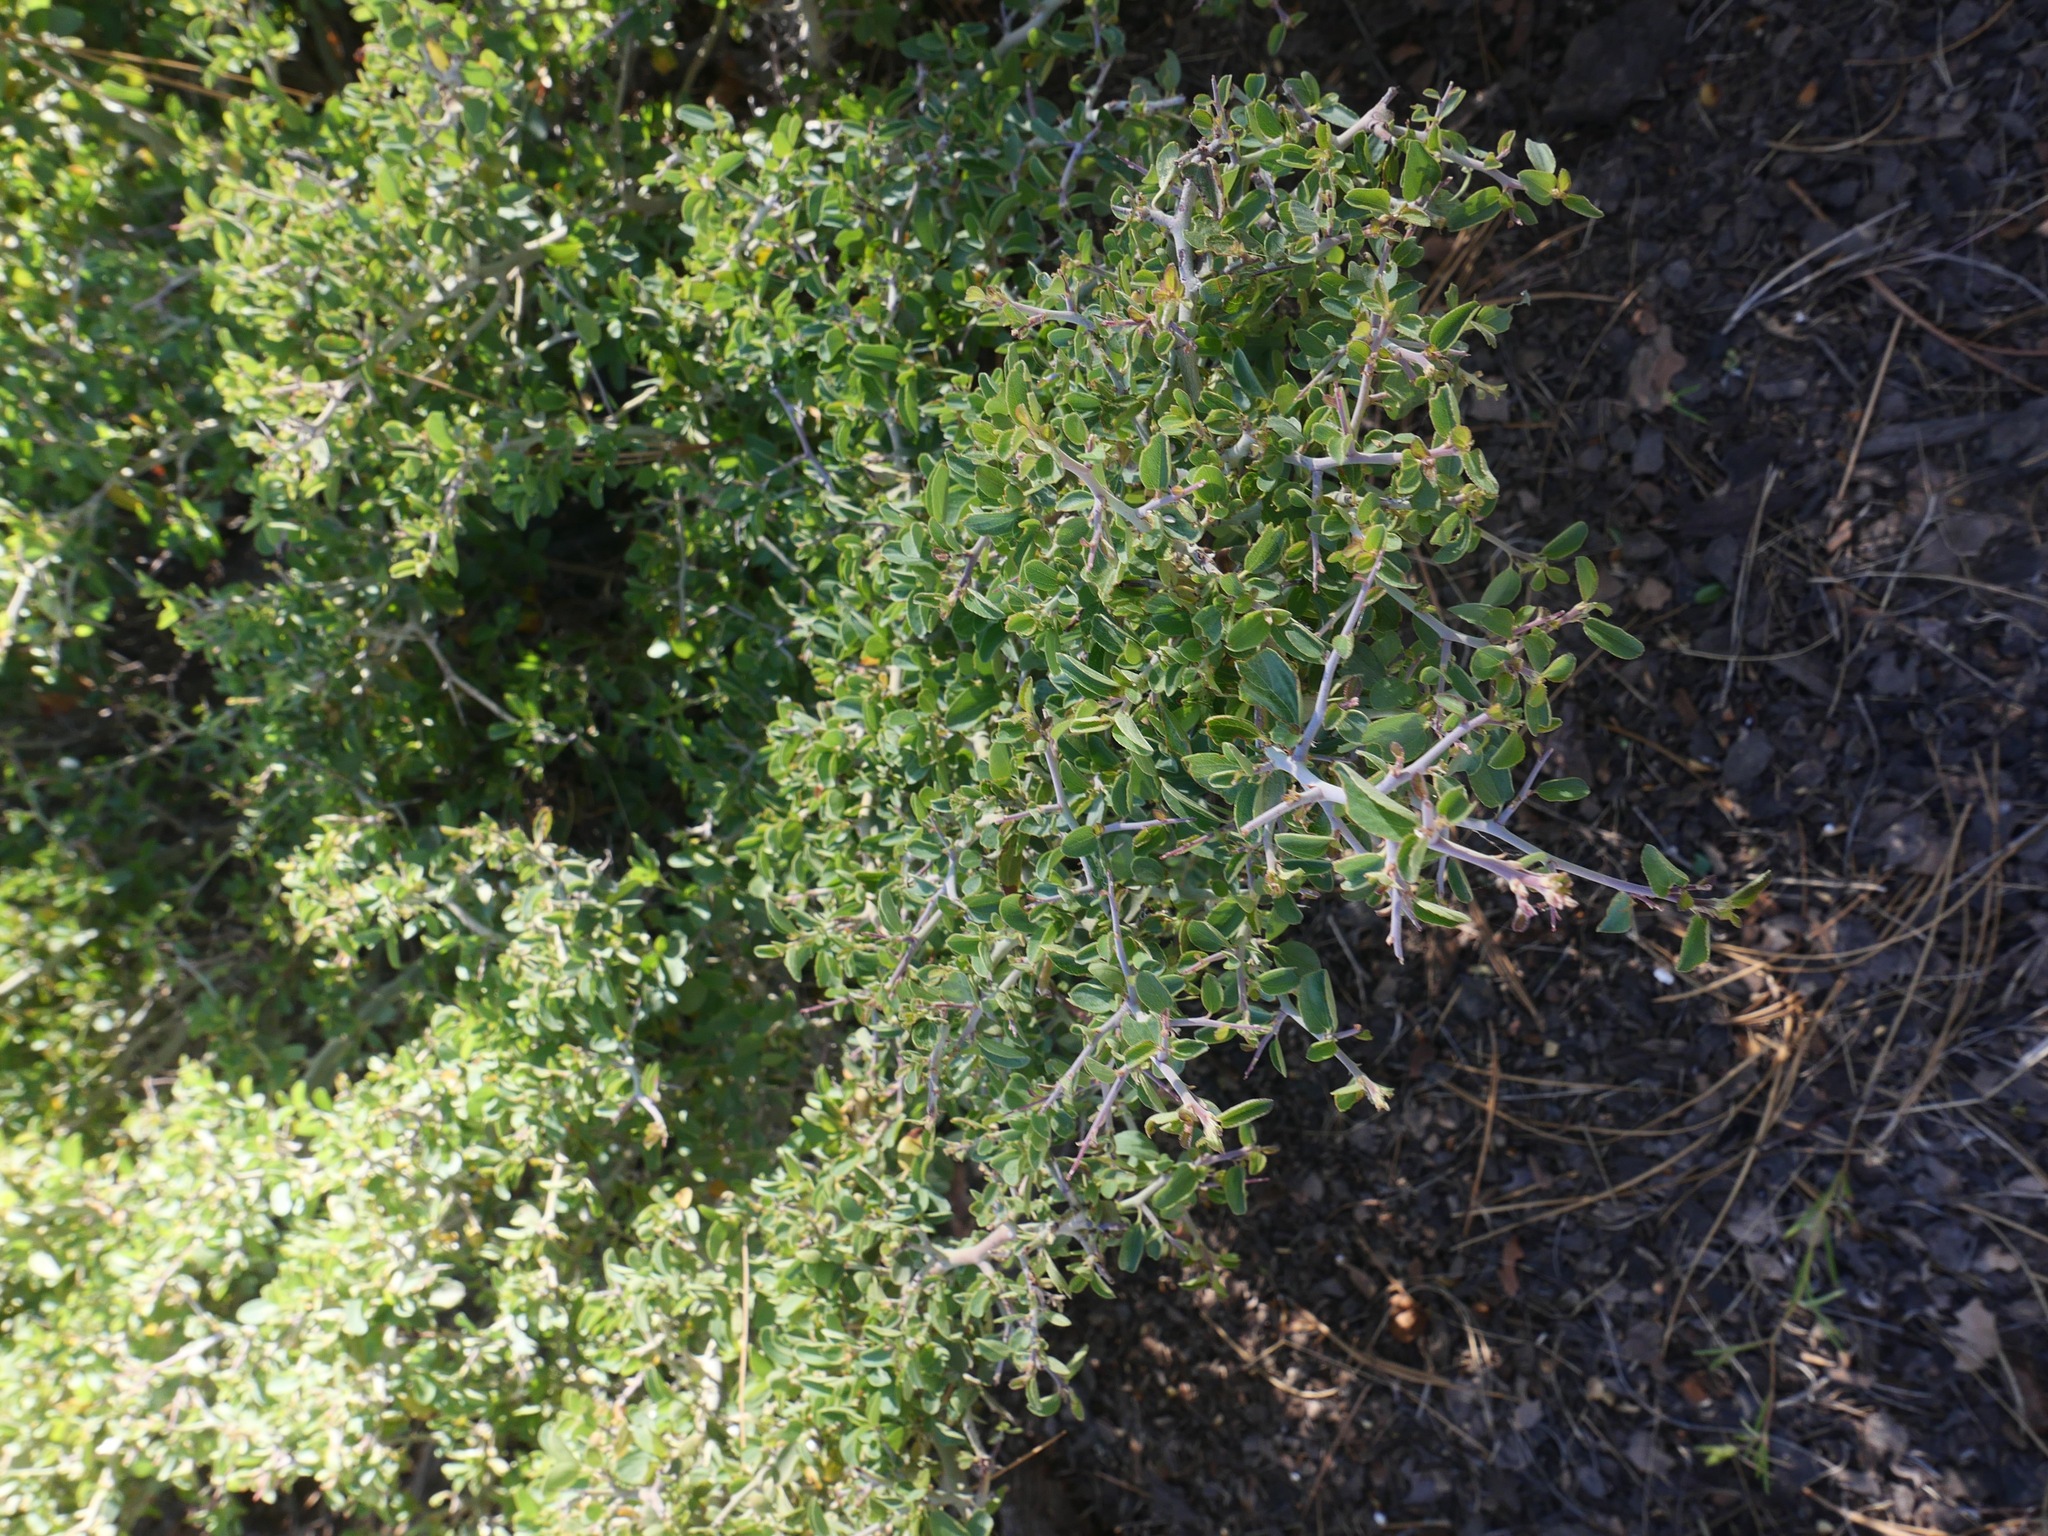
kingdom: Plantae
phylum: Tracheophyta
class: Magnoliopsida
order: Rosales
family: Rhamnaceae
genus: Ceanothus
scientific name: Ceanothus leucodermis
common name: Chaparral whitethorn
